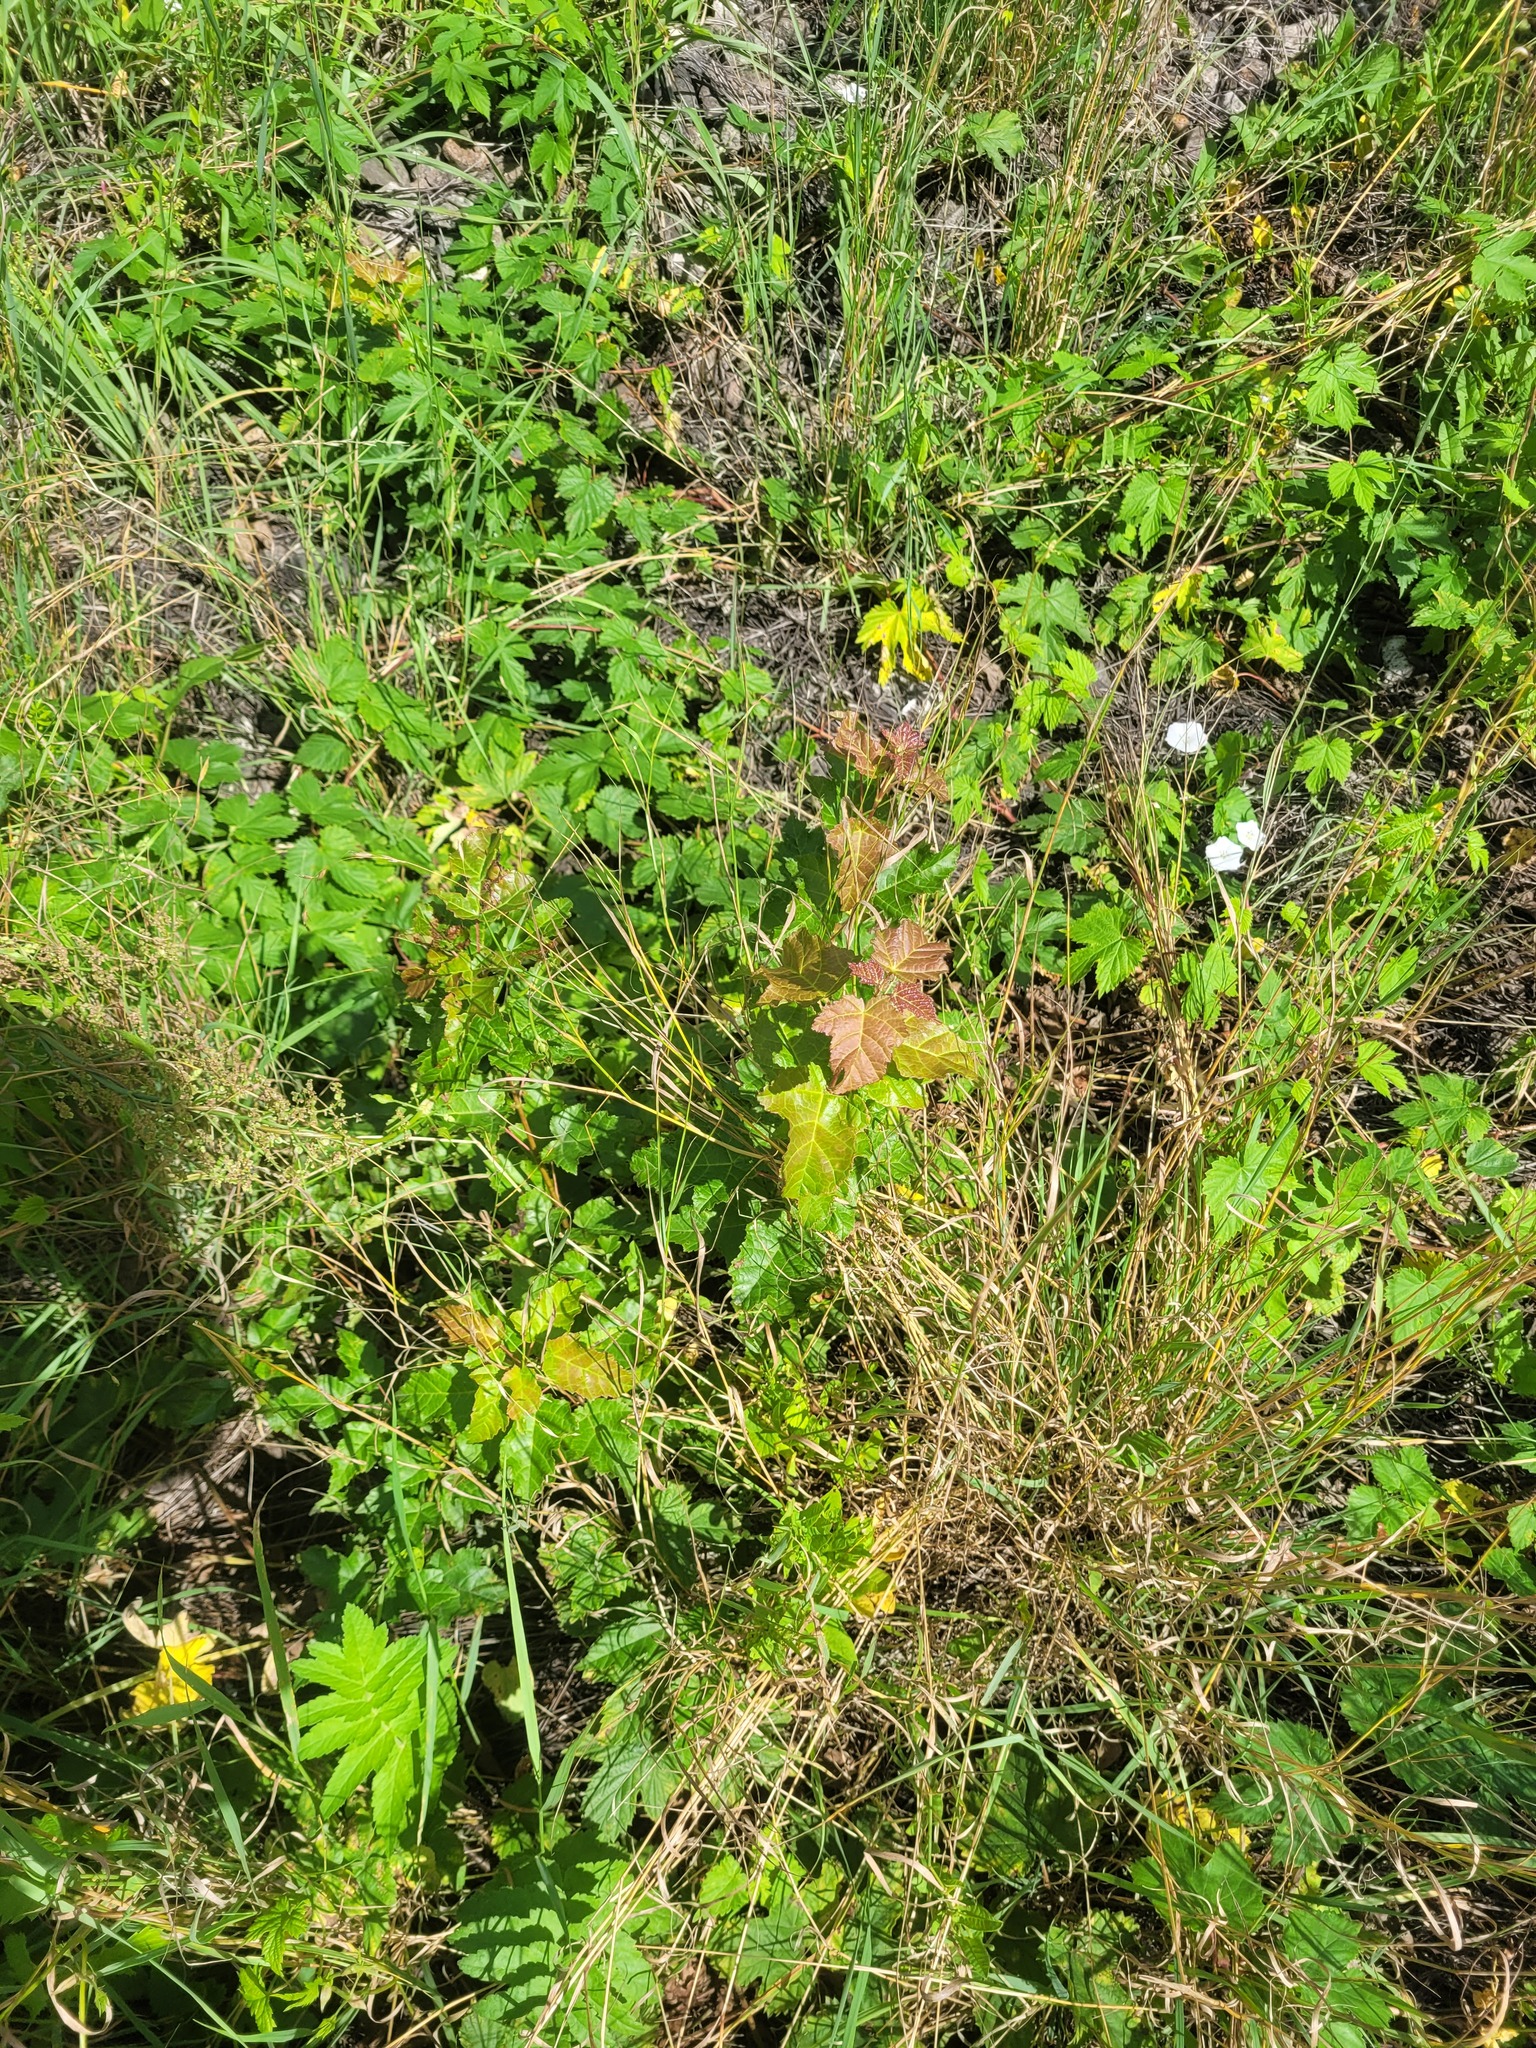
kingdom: Plantae
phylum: Tracheophyta
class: Magnoliopsida
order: Sapindales
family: Sapindaceae
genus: Acer
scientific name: Acer tataricum
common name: Tartar maple
